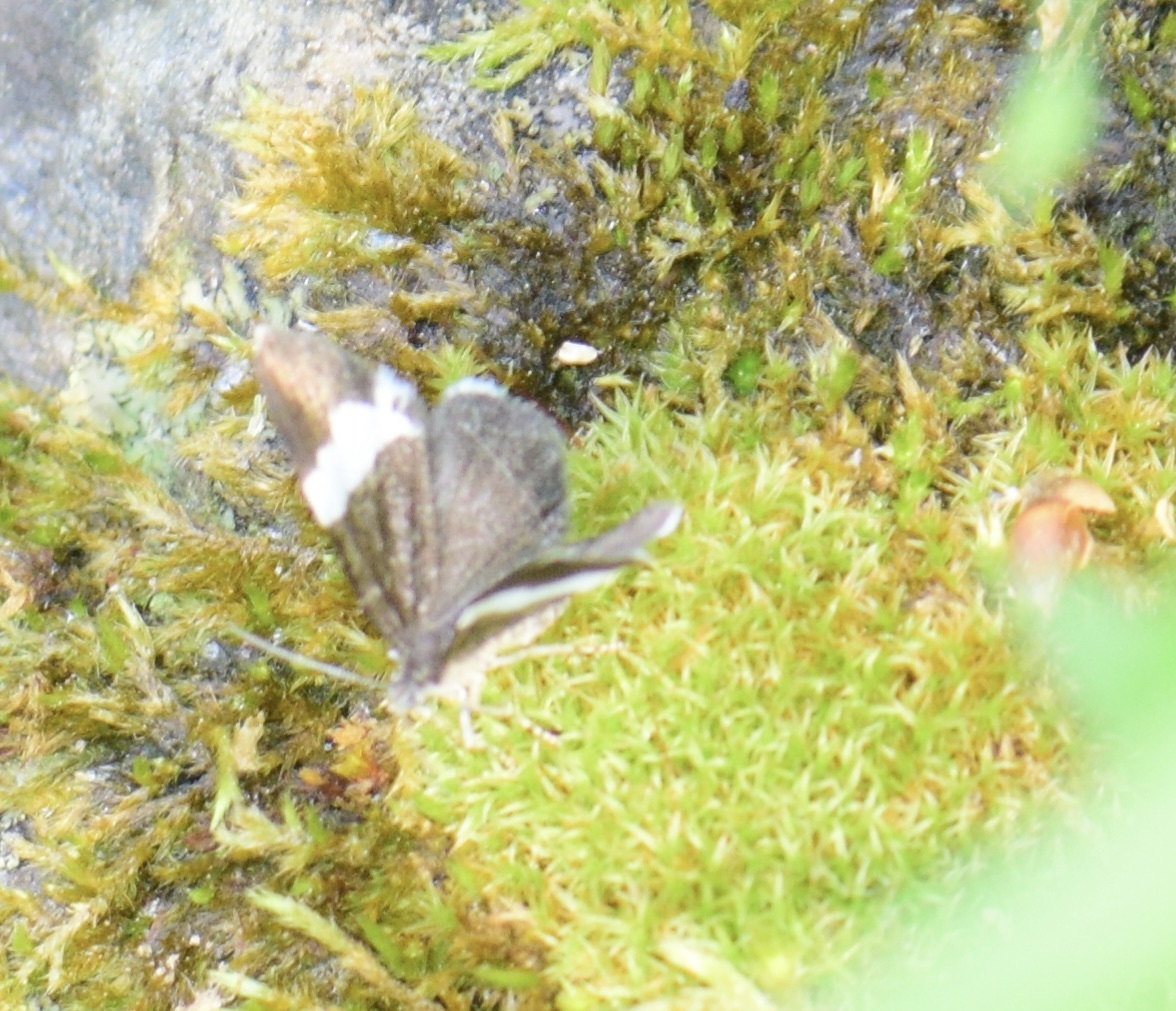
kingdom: Animalia
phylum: Arthropoda
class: Insecta
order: Lepidoptera
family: Geometridae
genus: Trichodezia
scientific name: Trichodezia albovittata
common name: White striped black
